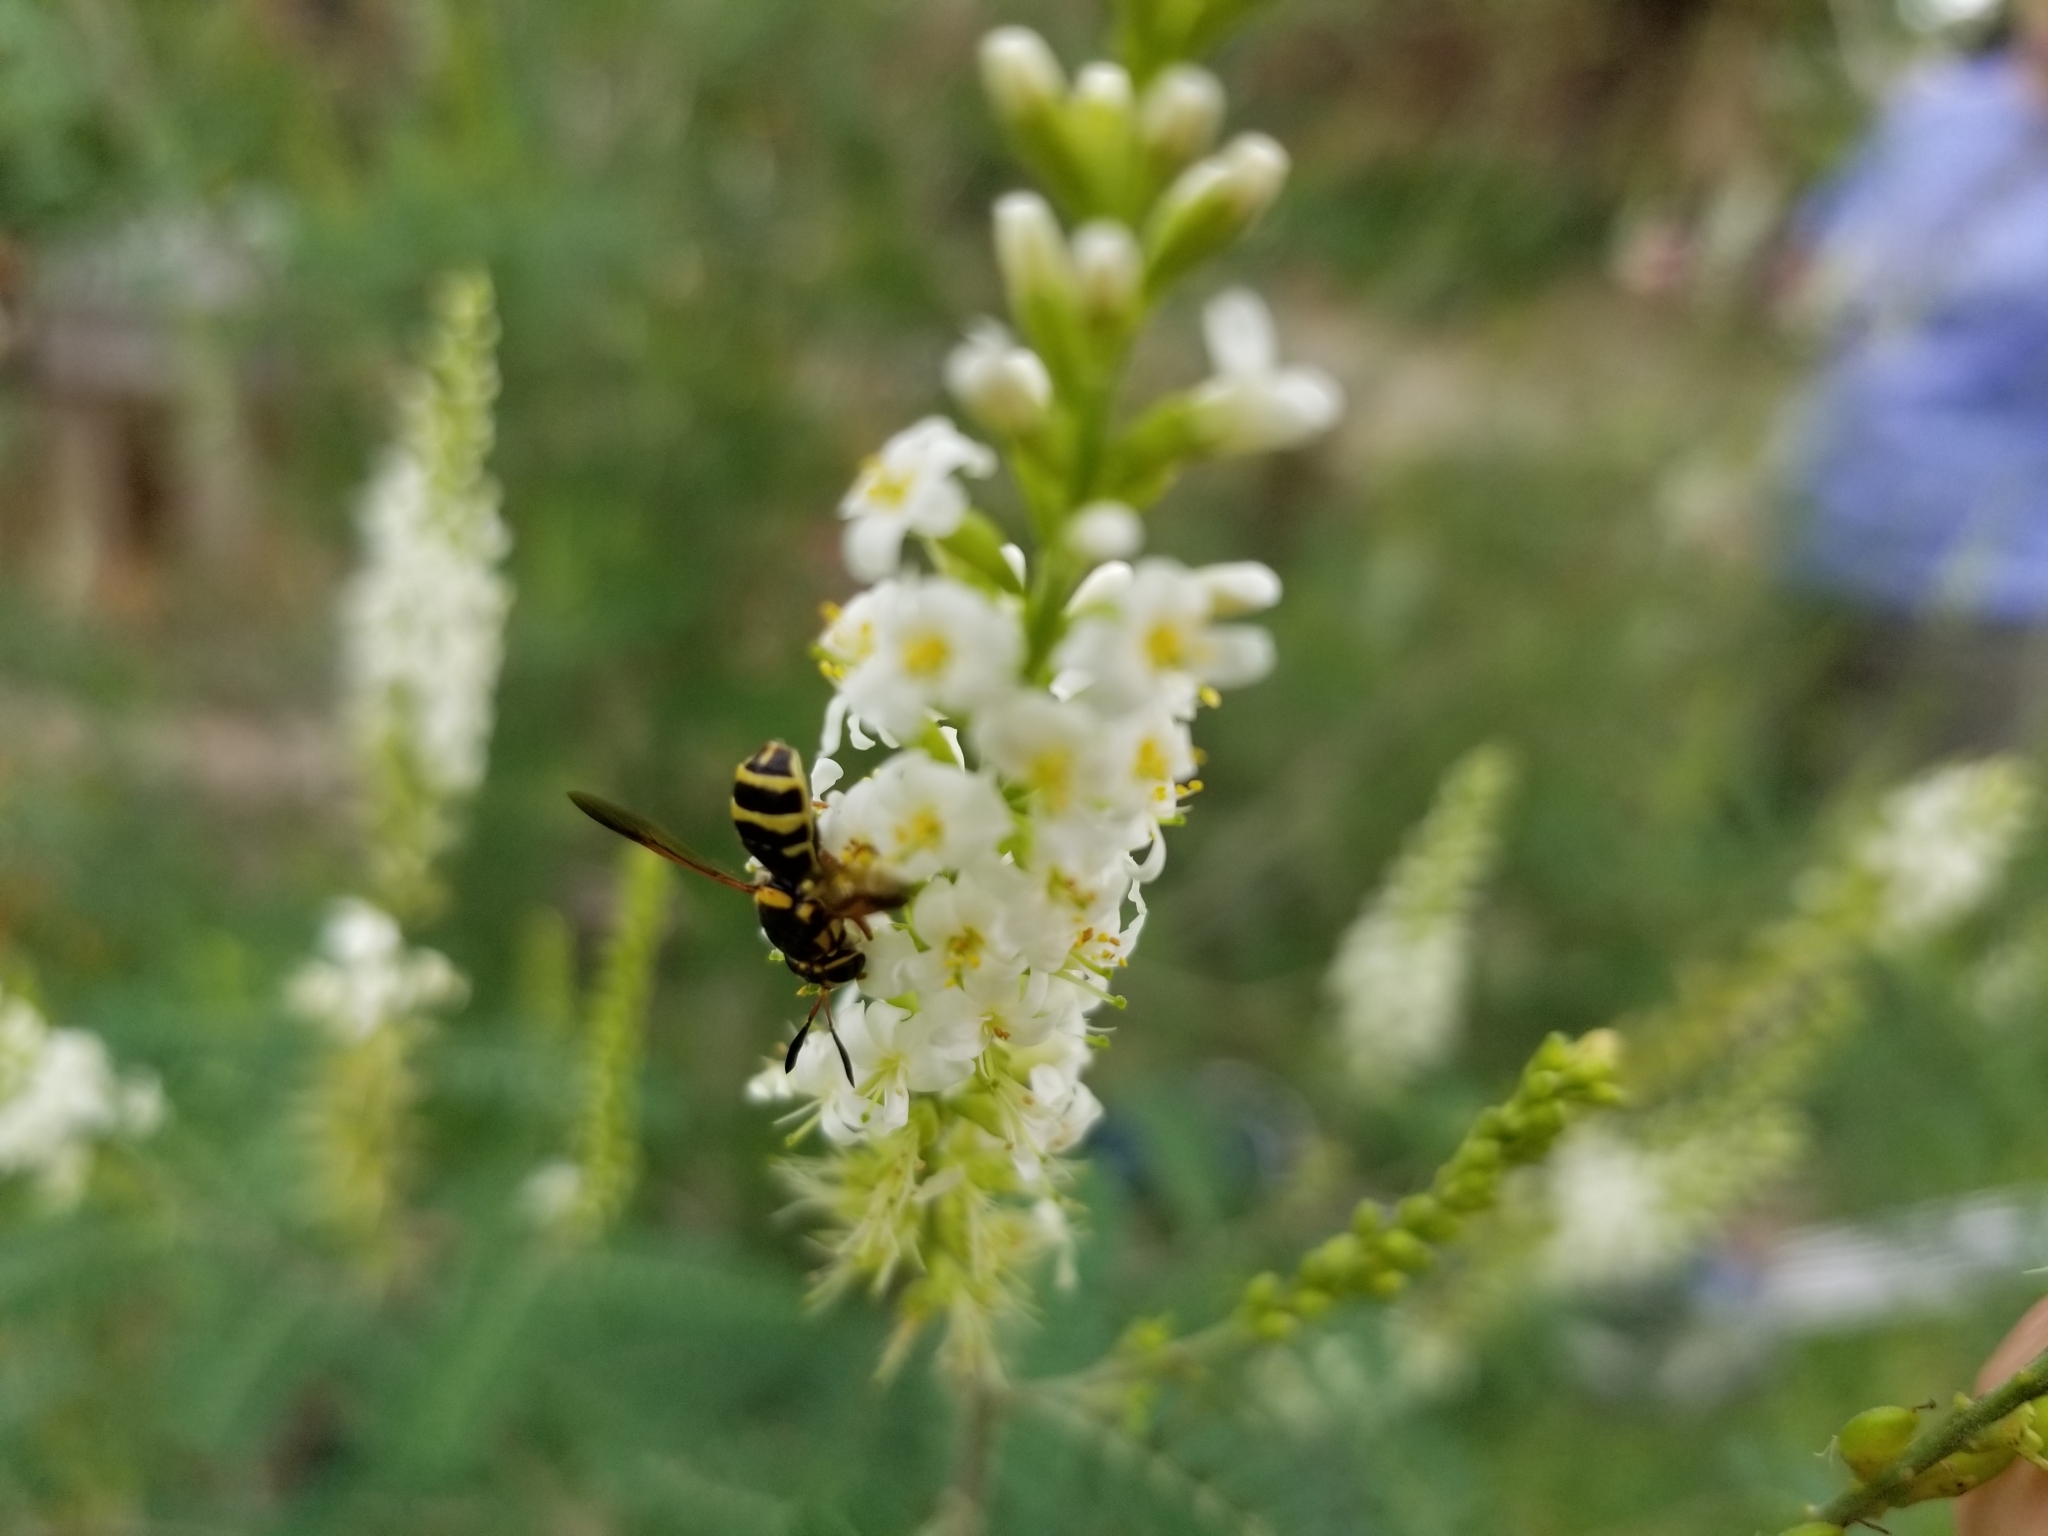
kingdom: Animalia
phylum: Arthropoda
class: Insecta
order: Diptera
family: Stratiomyidae
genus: Hoplitimyia
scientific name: Hoplitimyia constans
